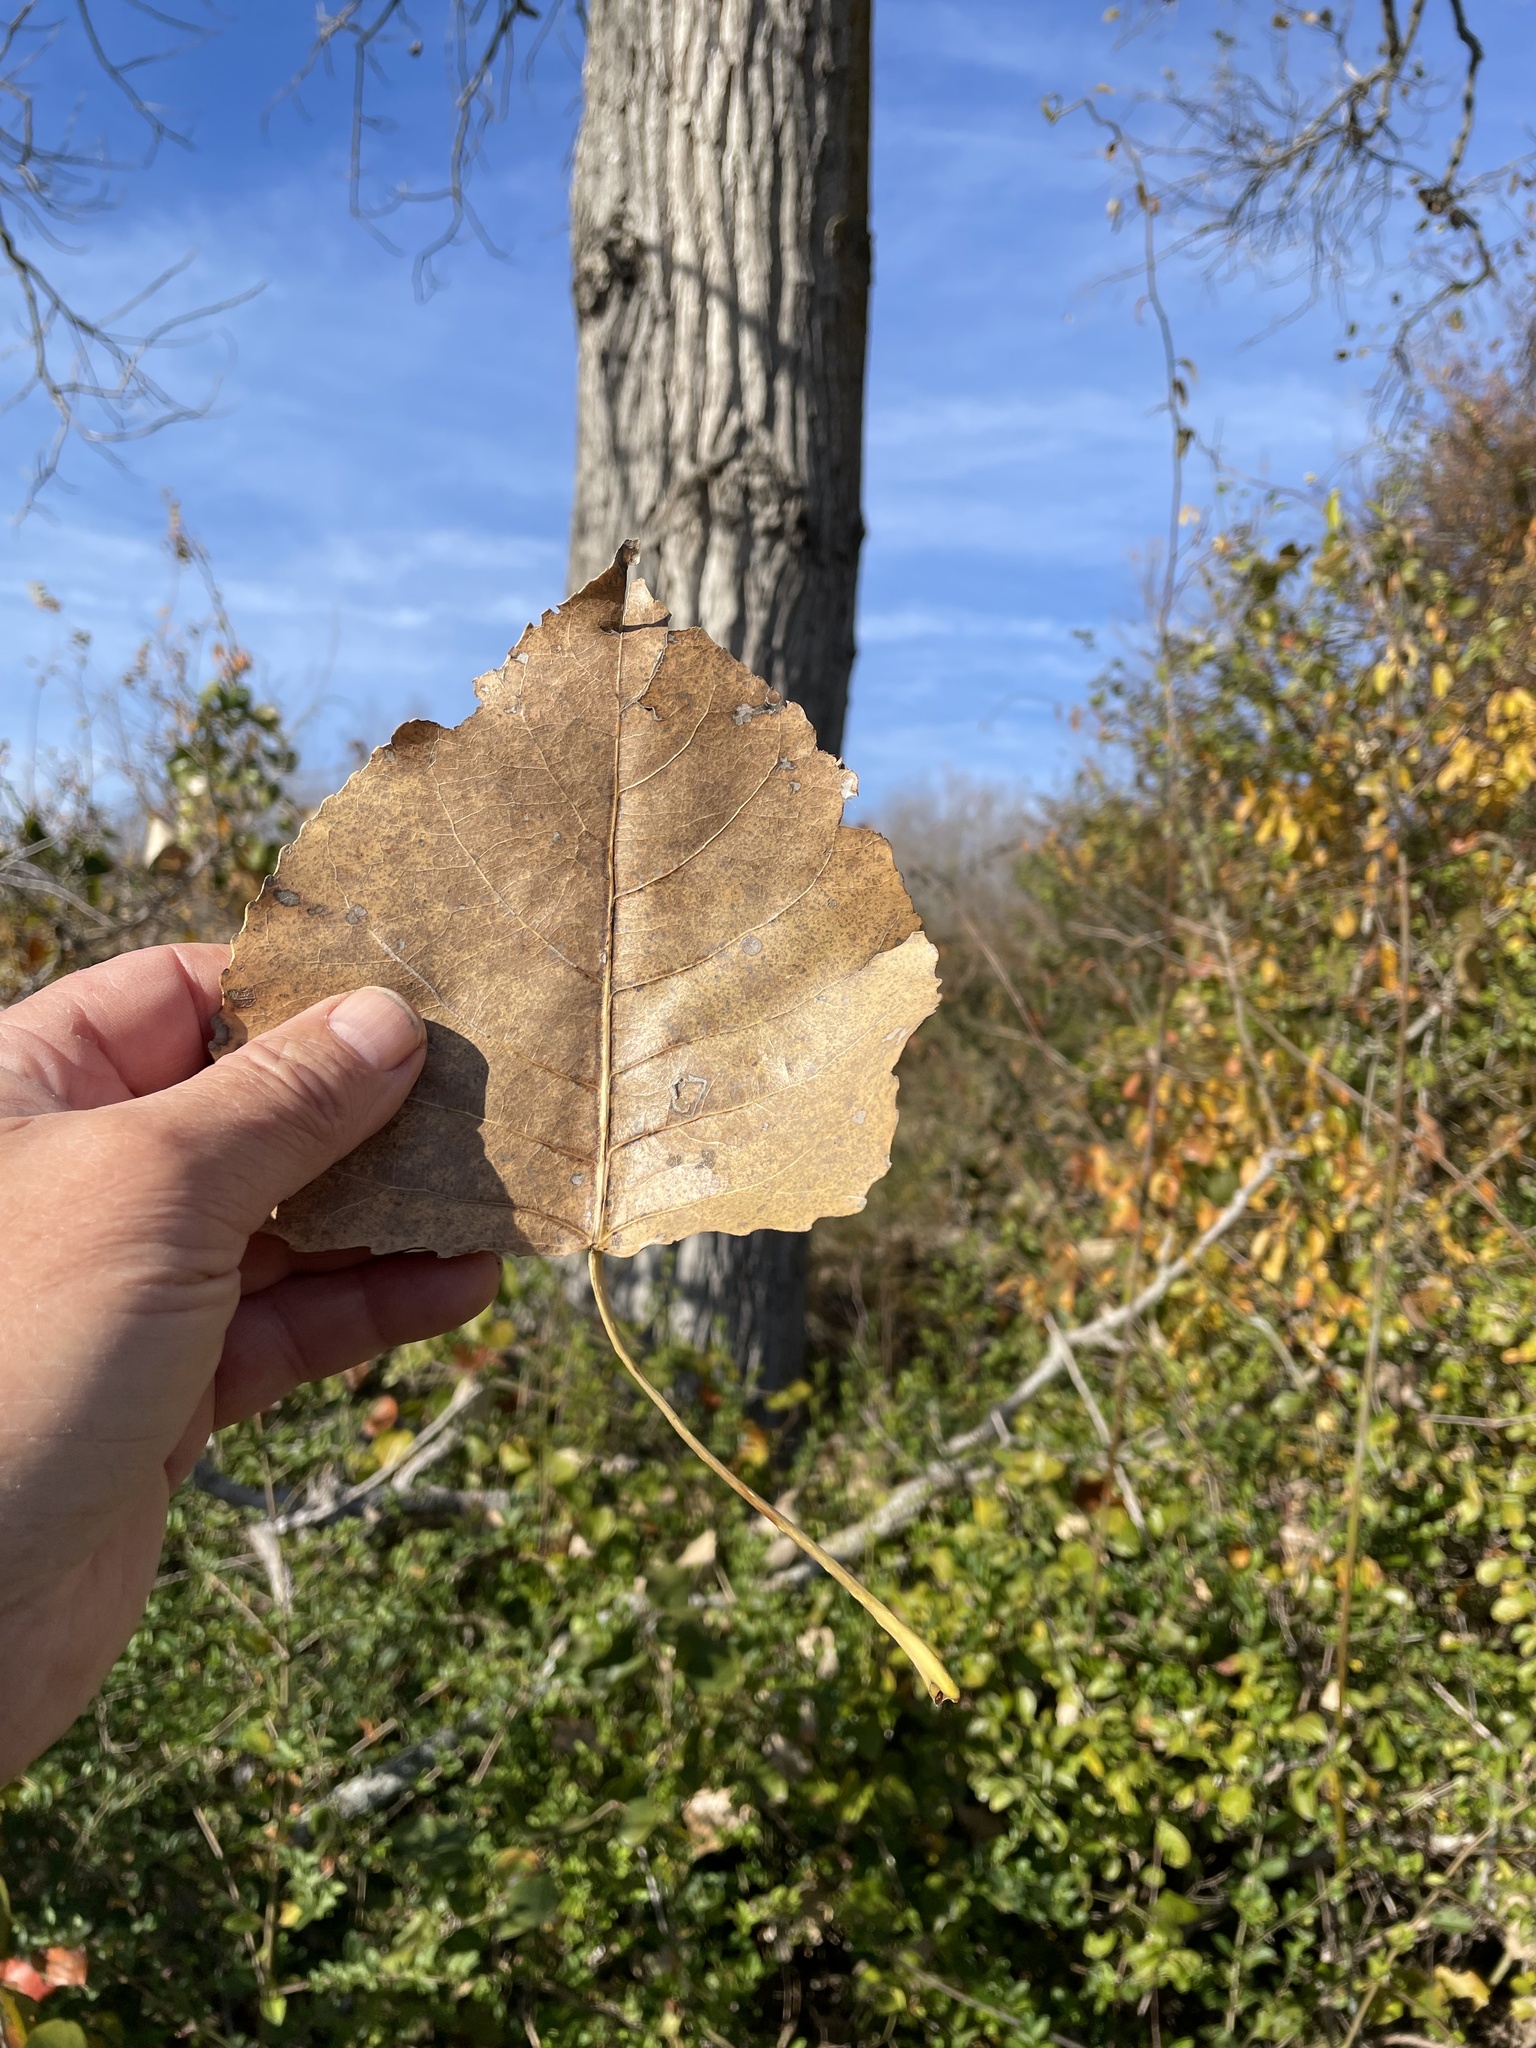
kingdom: Plantae
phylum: Tracheophyta
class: Magnoliopsida
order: Malpighiales
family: Salicaceae
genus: Populus
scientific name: Populus deltoides
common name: Eastern cottonwood
